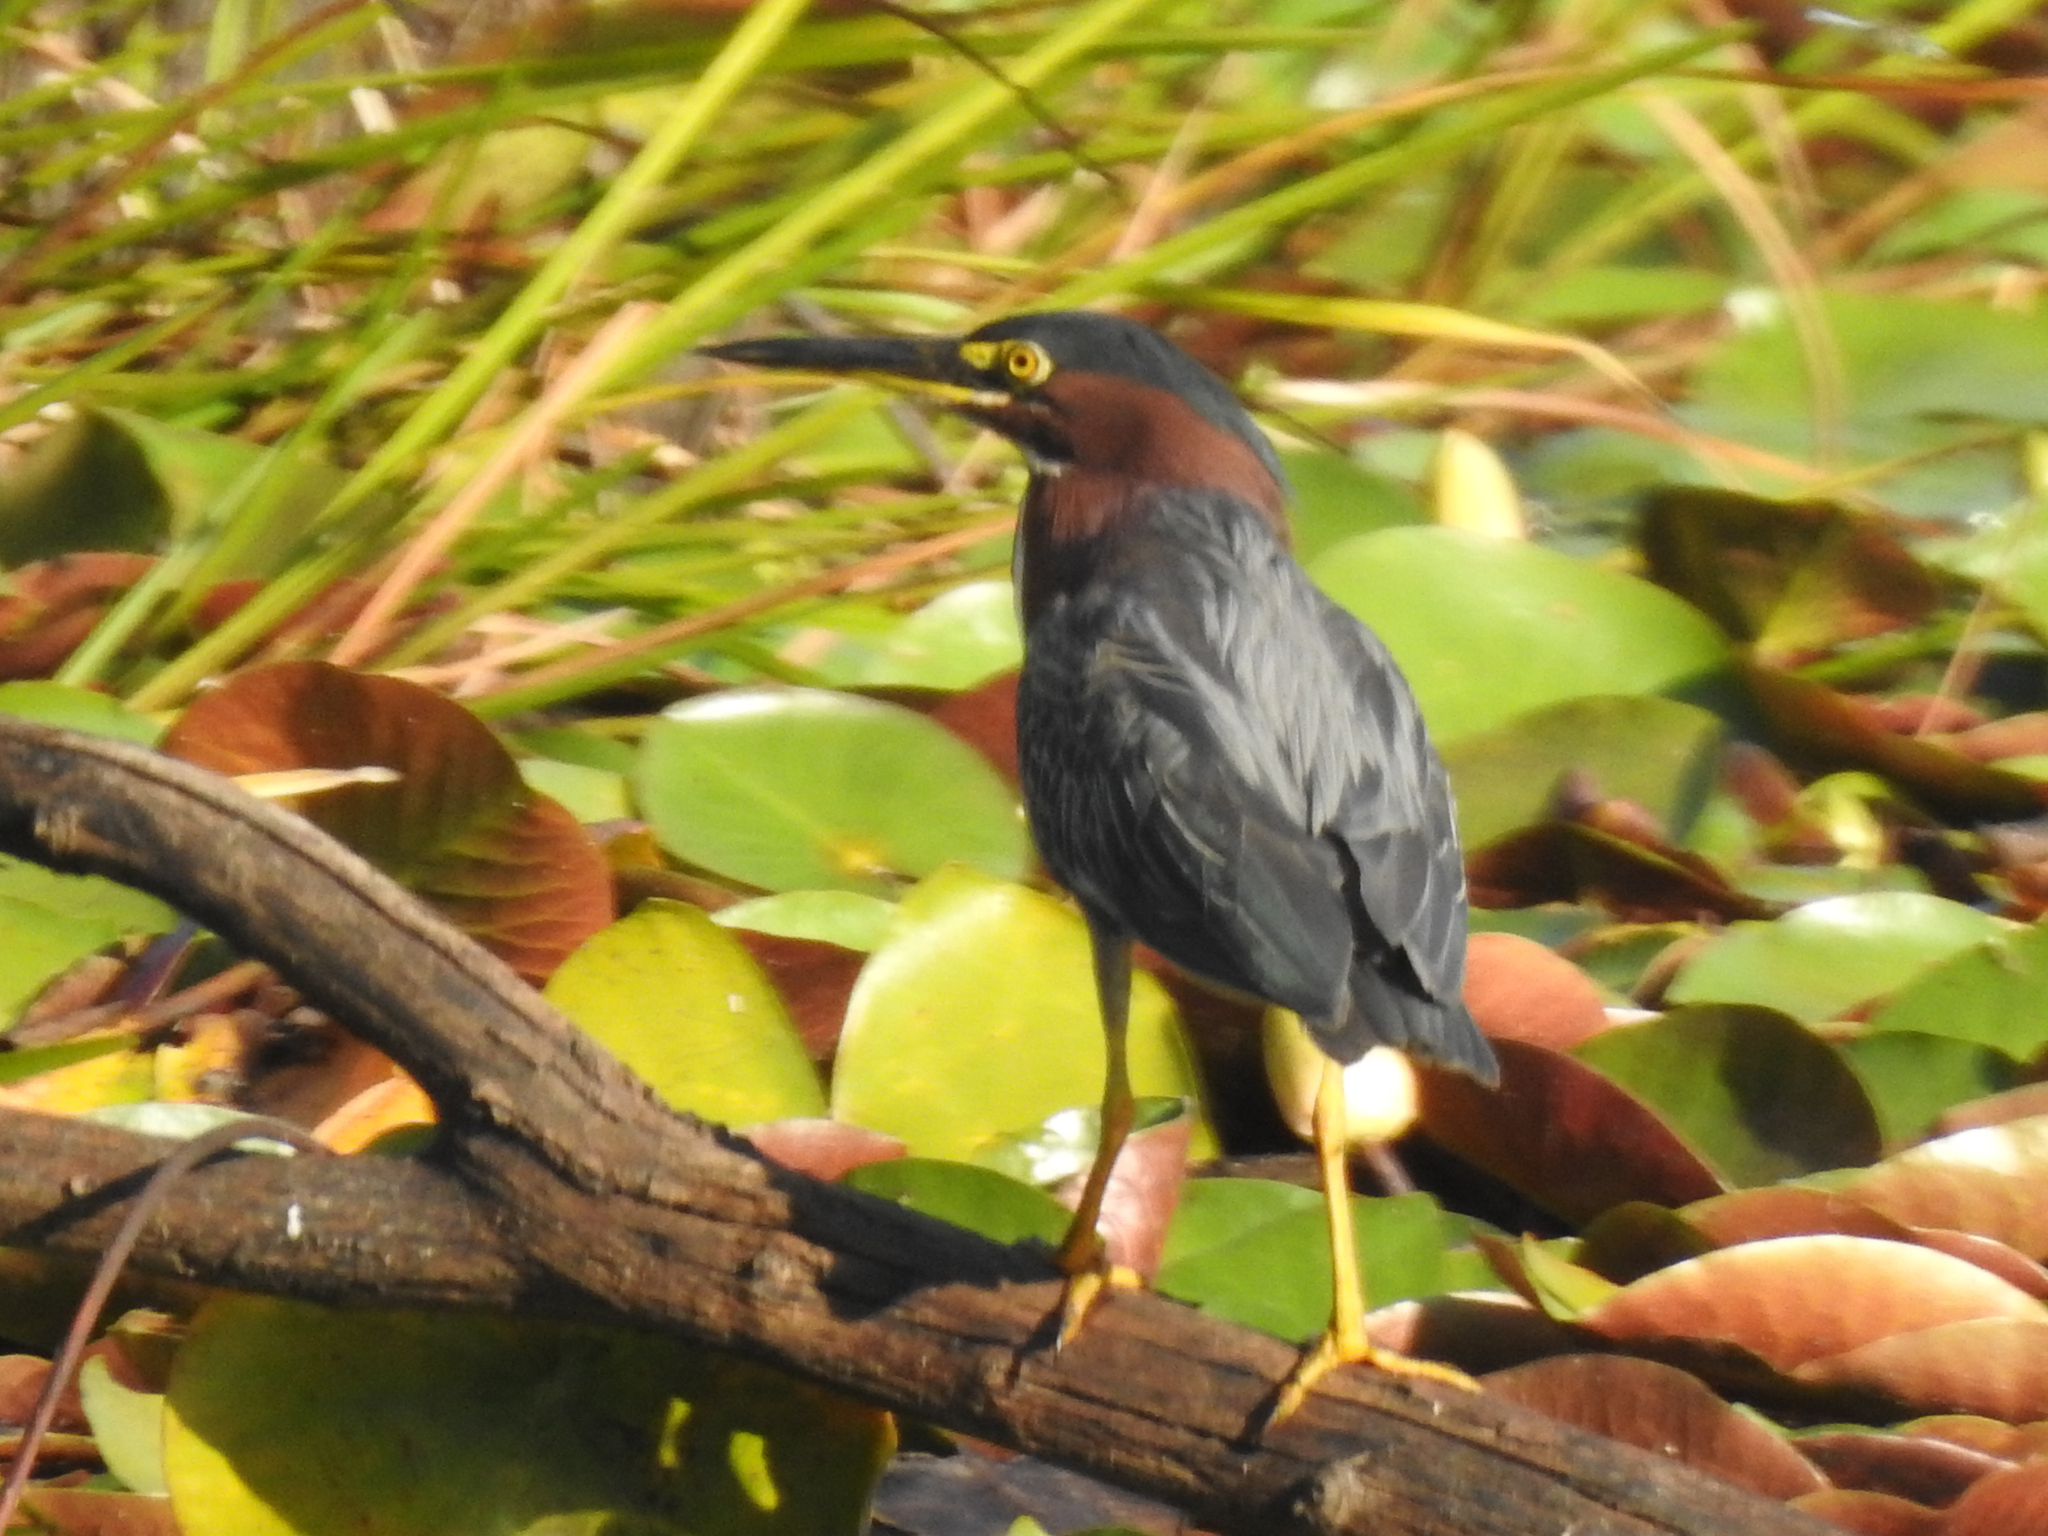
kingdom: Animalia
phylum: Chordata
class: Aves
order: Pelecaniformes
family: Ardeidae
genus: Butorides
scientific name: Butorides virescens
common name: Green heron
